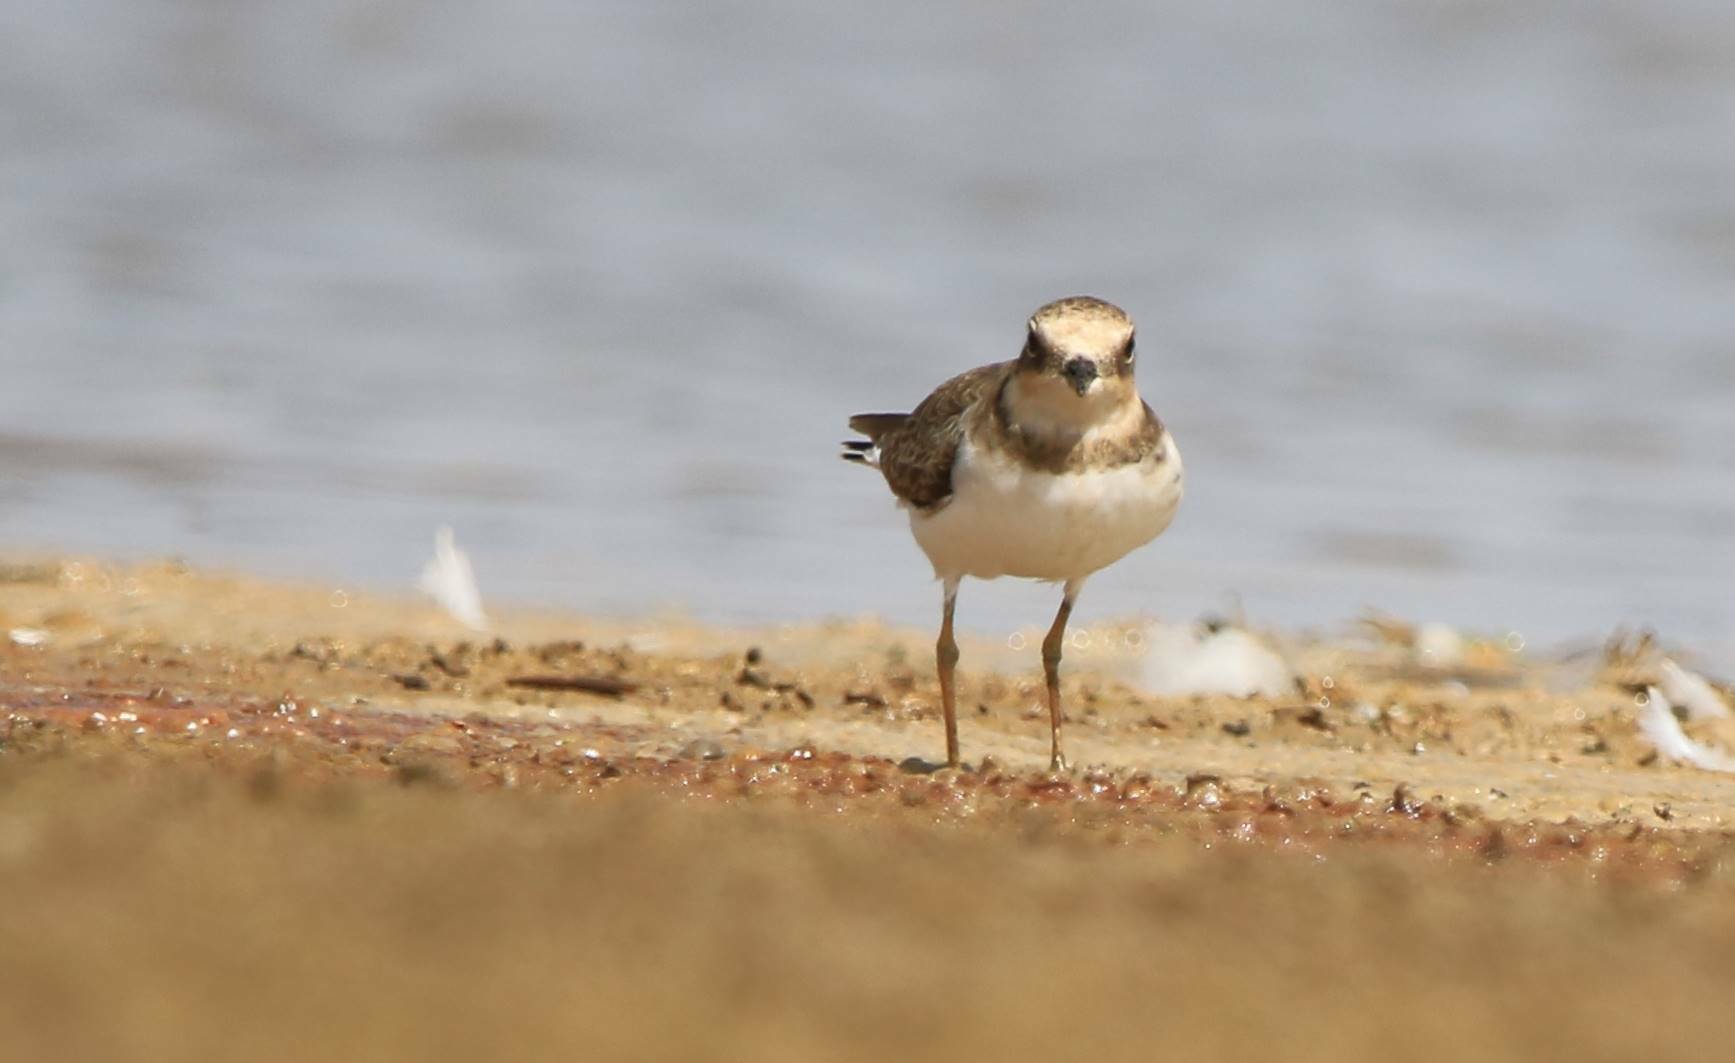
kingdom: Animalia
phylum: Chordata
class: Aves
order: Charadriiformes
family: Charadriidae
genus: Charadrius
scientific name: Charadrius dubius
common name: Little ringed plover
